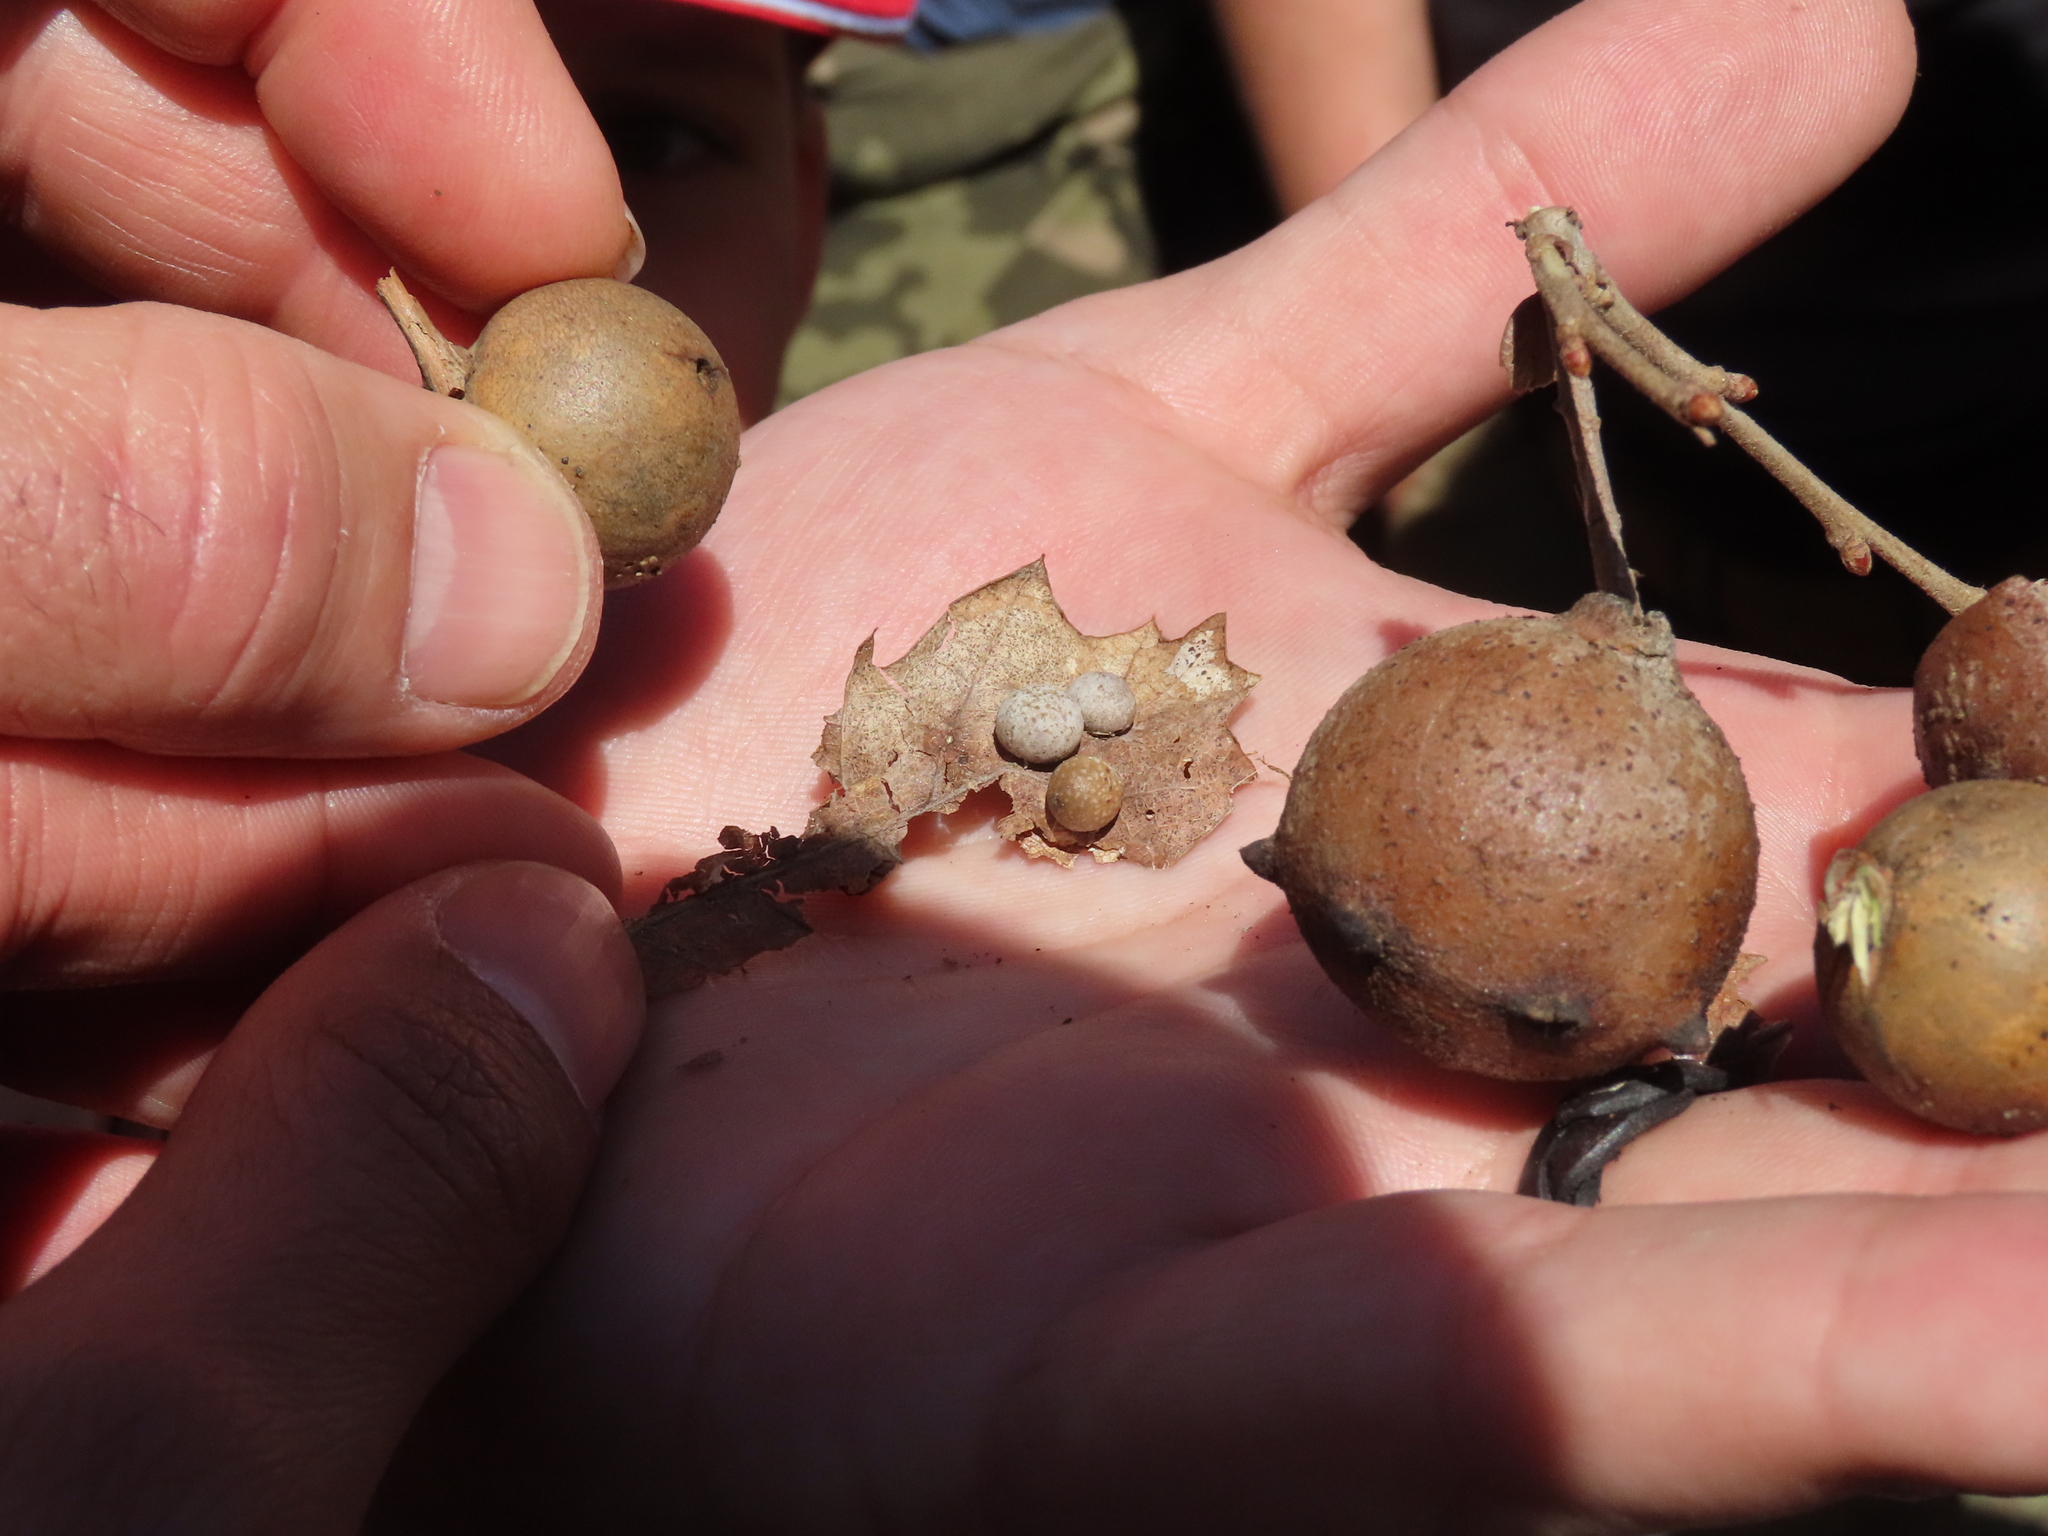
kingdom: Animalia
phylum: Arthropoda
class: Insecta
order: Hymenoptera
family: Cynipidae
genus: Andricus
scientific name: Andricus quercustozae
